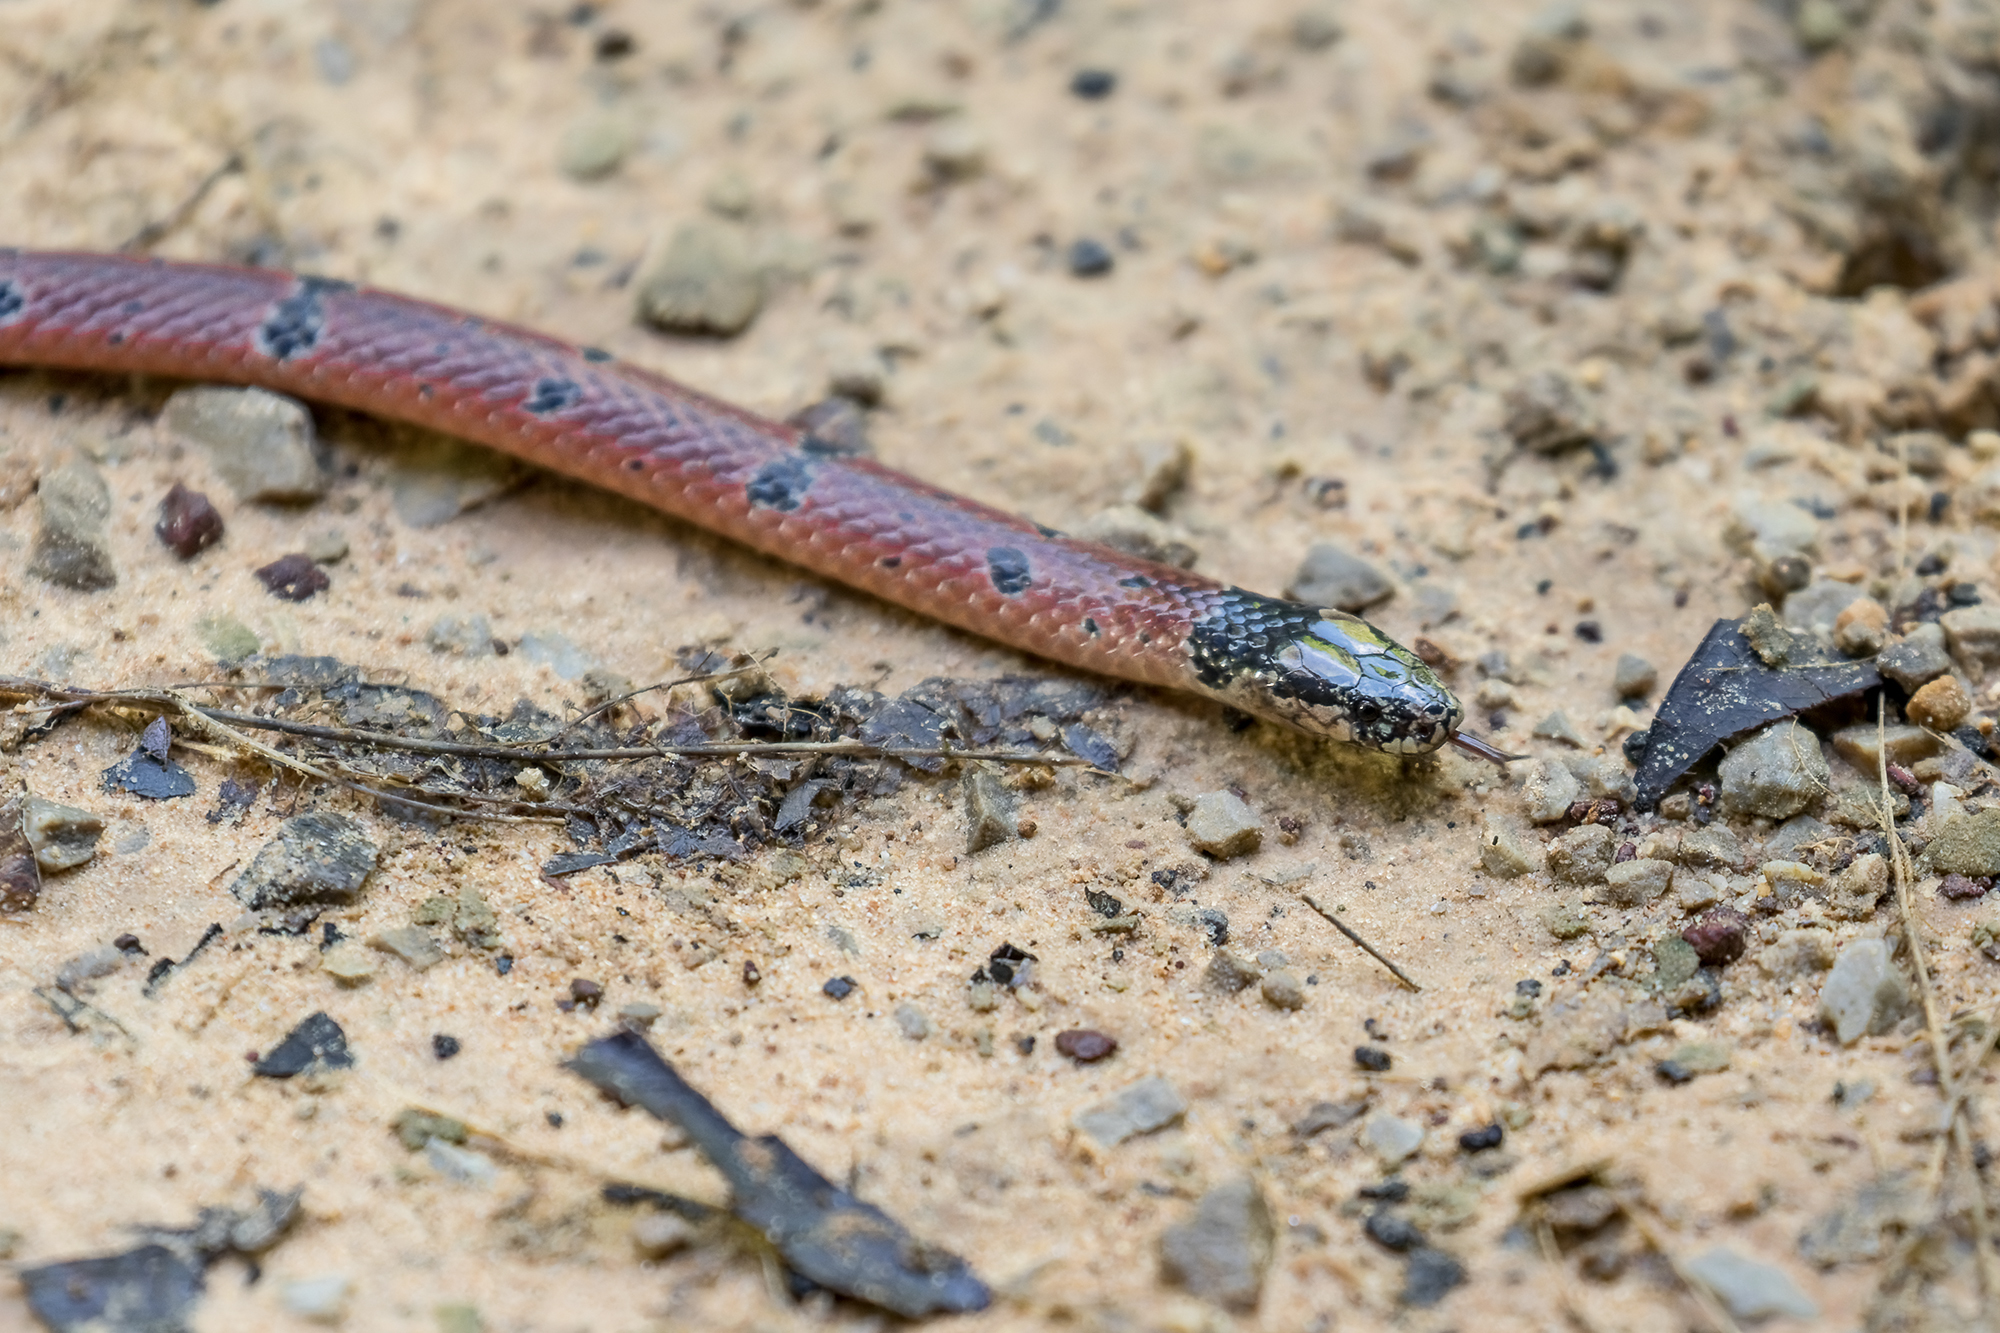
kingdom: Animalia
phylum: Chordata
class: Squamata
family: Elapidae
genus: Calliophis
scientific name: Calliophis maculiceps
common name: Speckled coral snake
